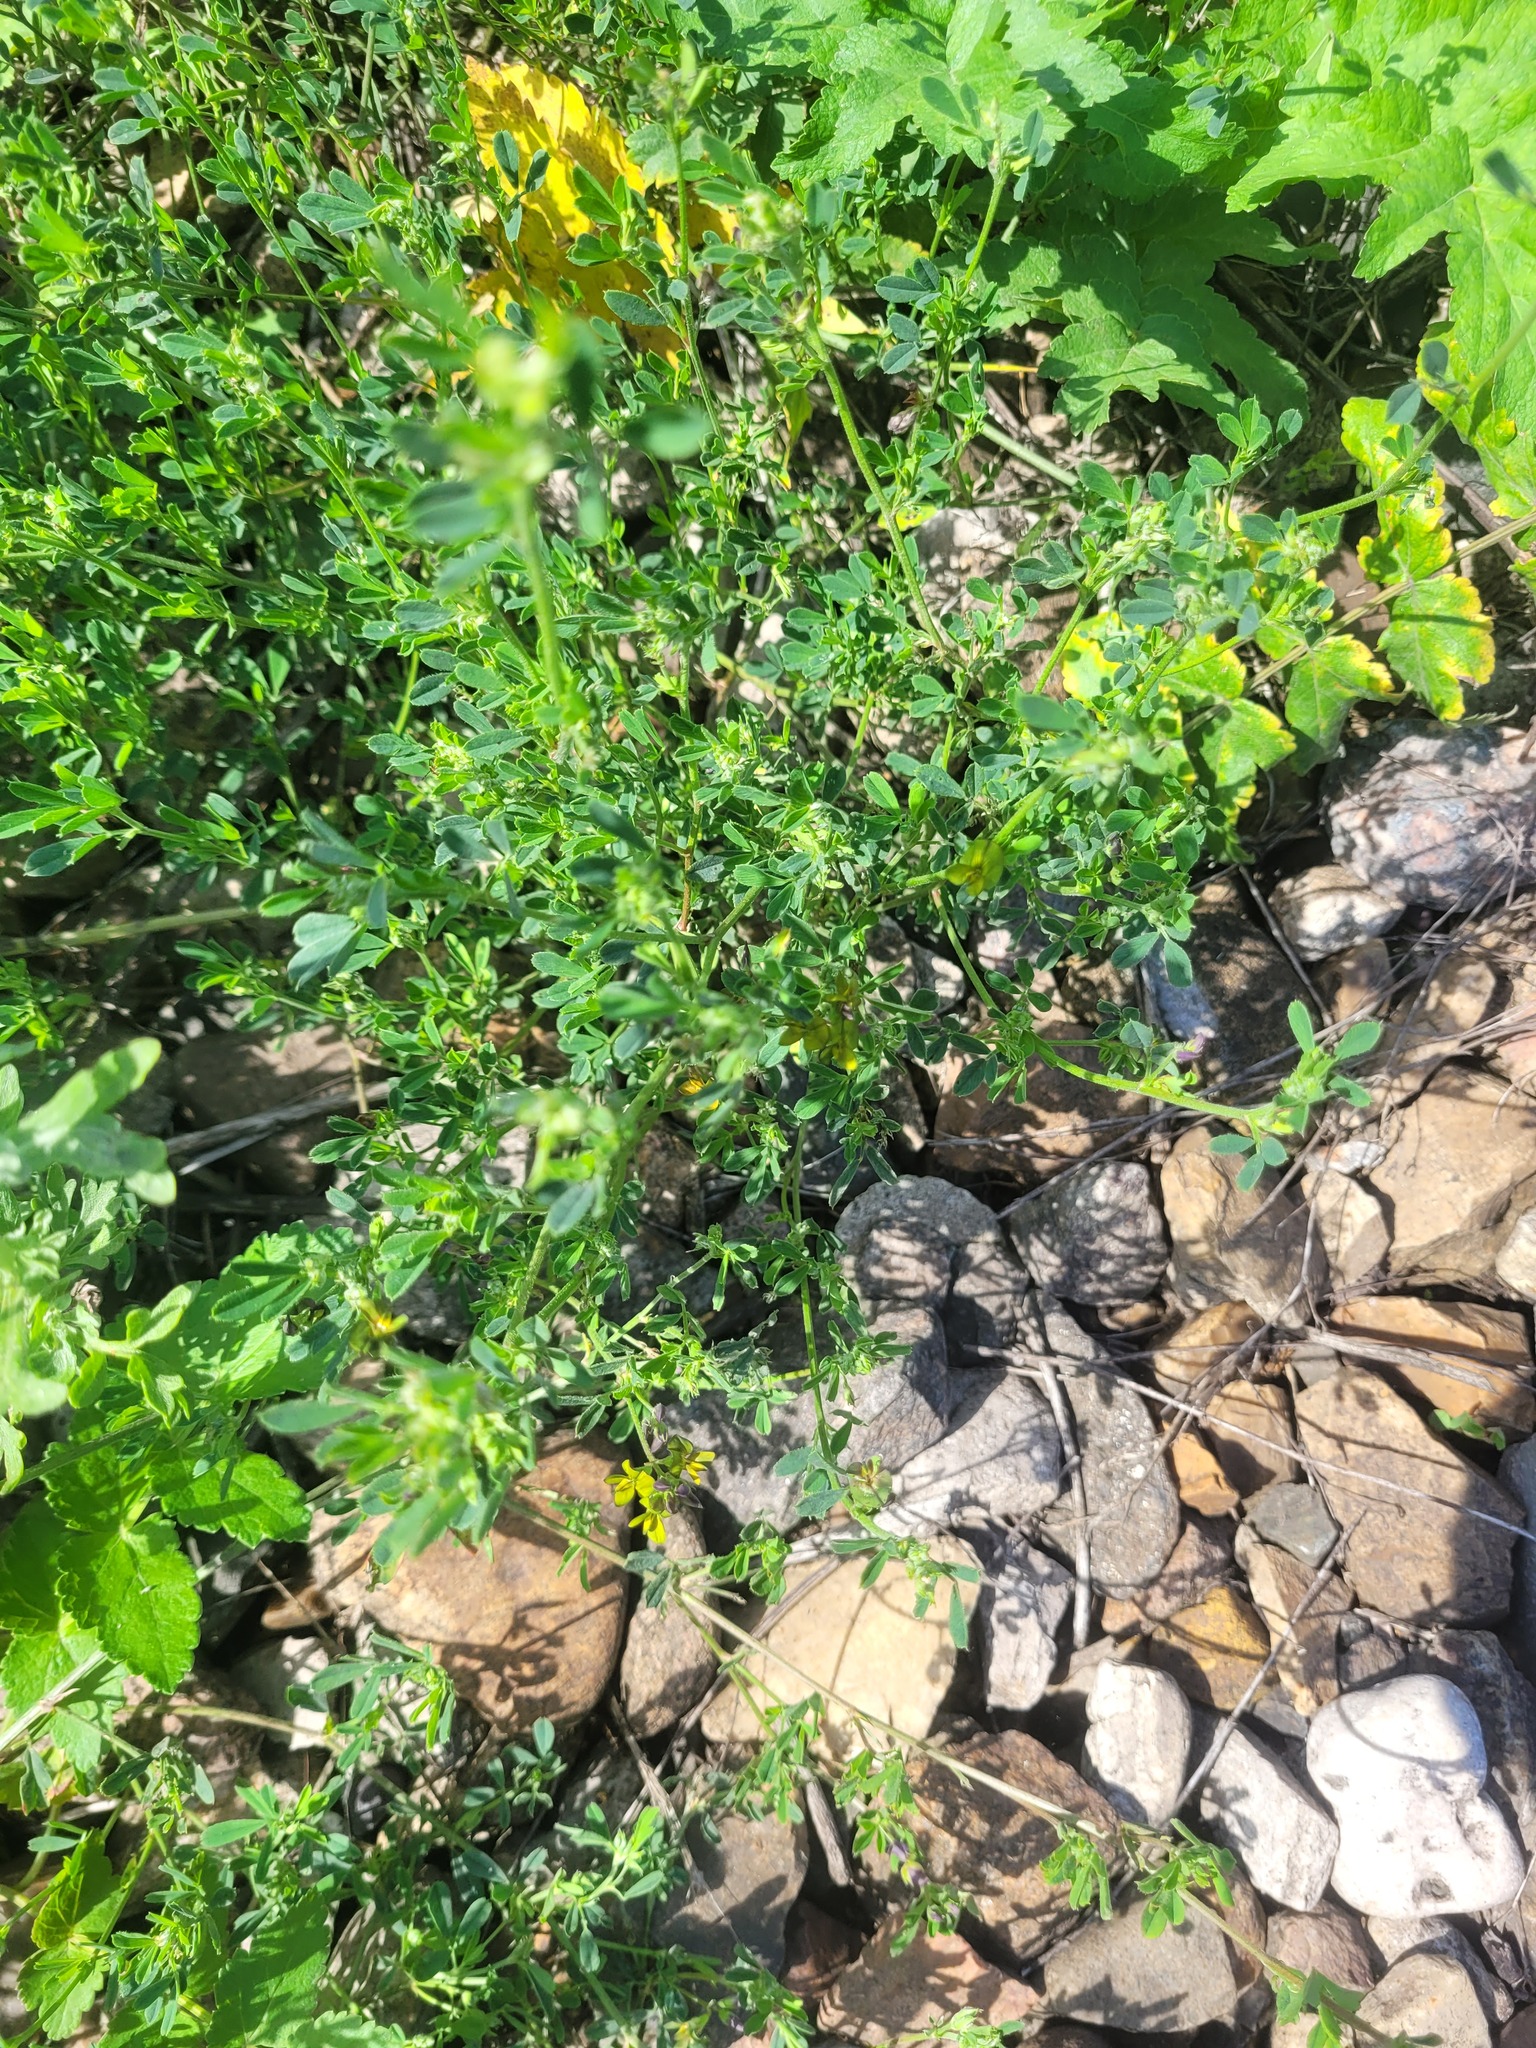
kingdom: Plantae
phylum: Tracheophyta
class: Magnoliopsida
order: Fabales
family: Fabaceae
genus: Medicago
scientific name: Medicago varia
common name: Sand lucerne
